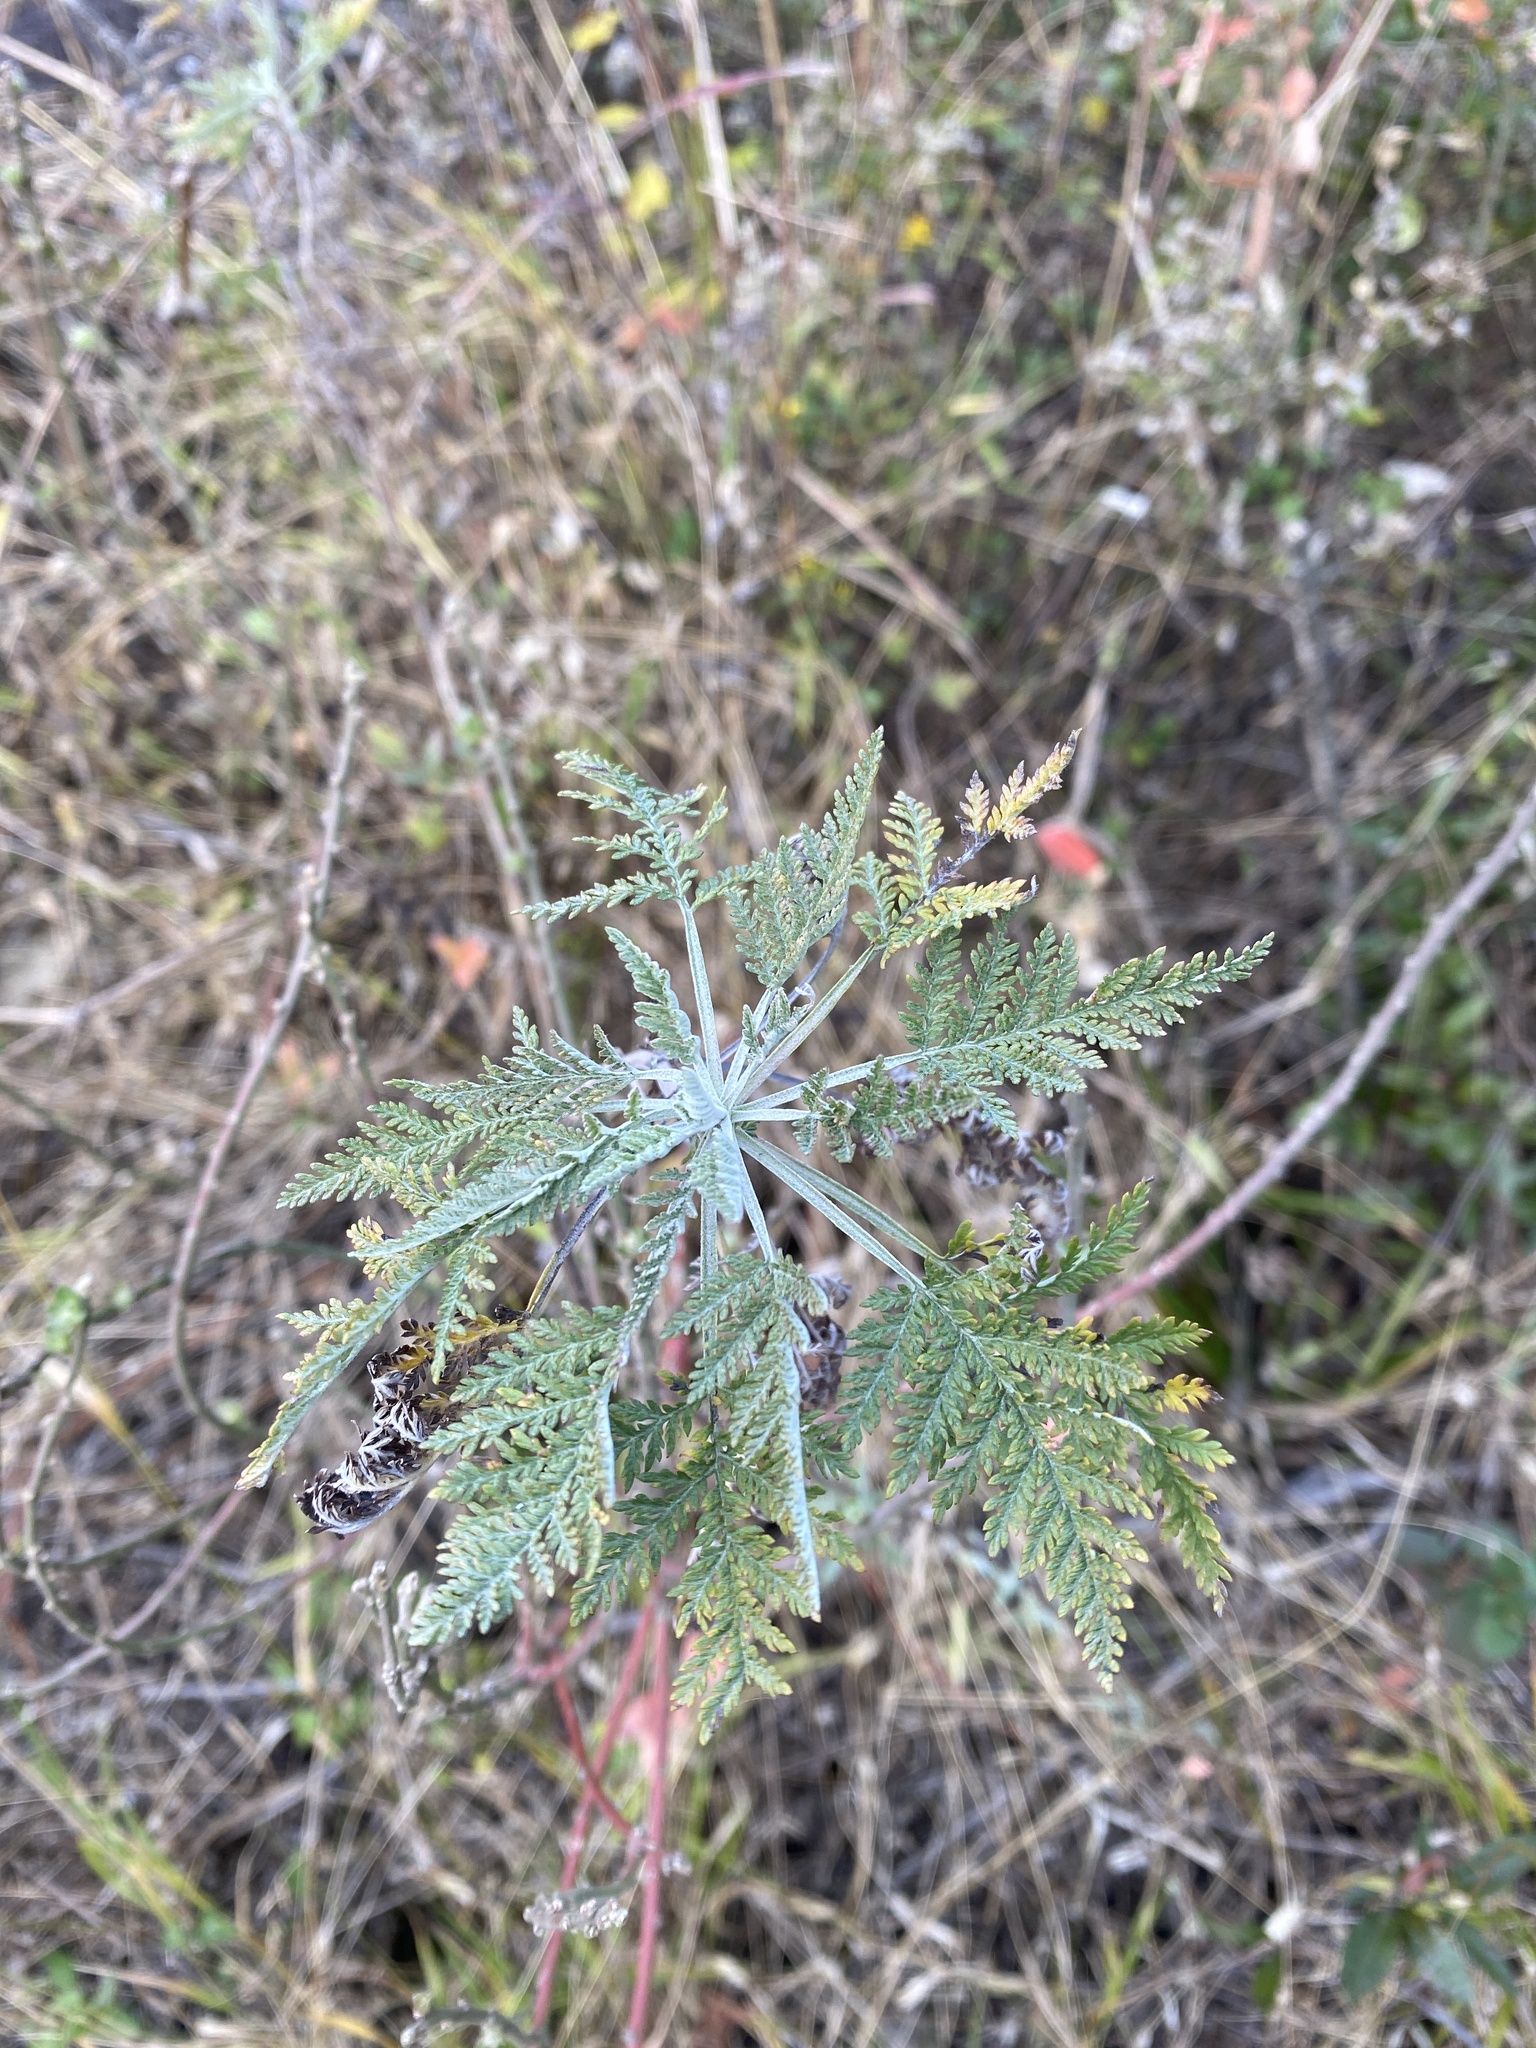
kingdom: Plantae
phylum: Tracheophyta
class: Magnoliopsida
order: Asterales
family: Asteraceae
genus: Artemisia
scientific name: Artemisia afra
